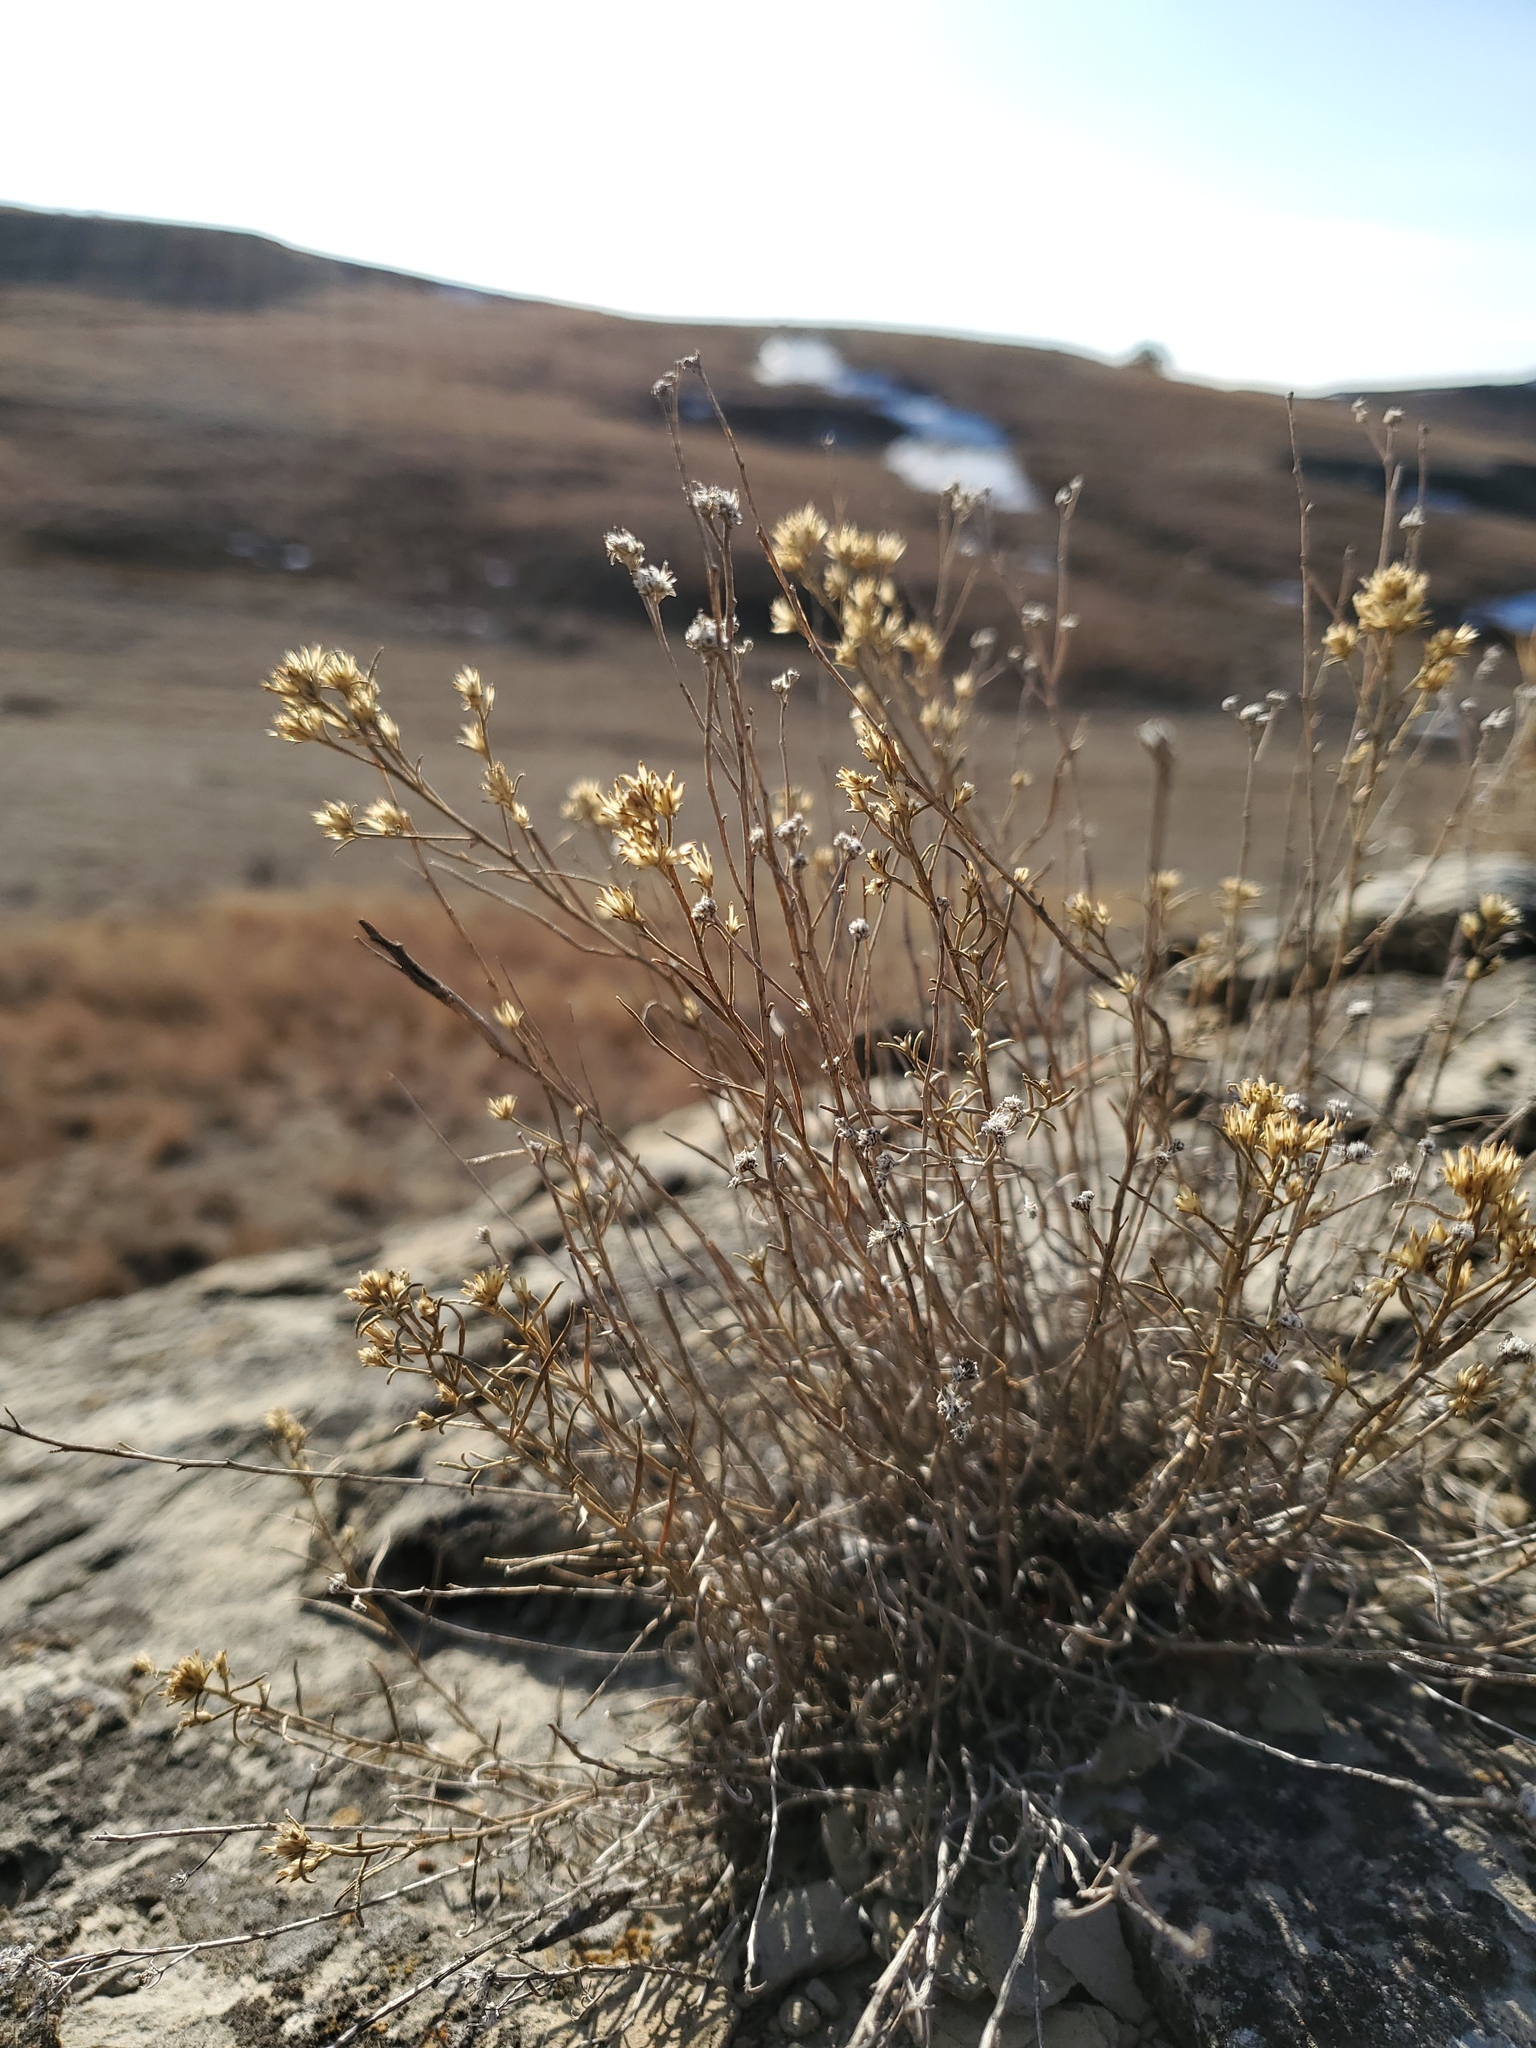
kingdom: Plantae
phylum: Tracheophyta
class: Magnoliopsida
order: Asterales
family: Asteraceae
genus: Gutierrezia
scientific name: Gutierrezia sarothrae
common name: Broom snakeweed
